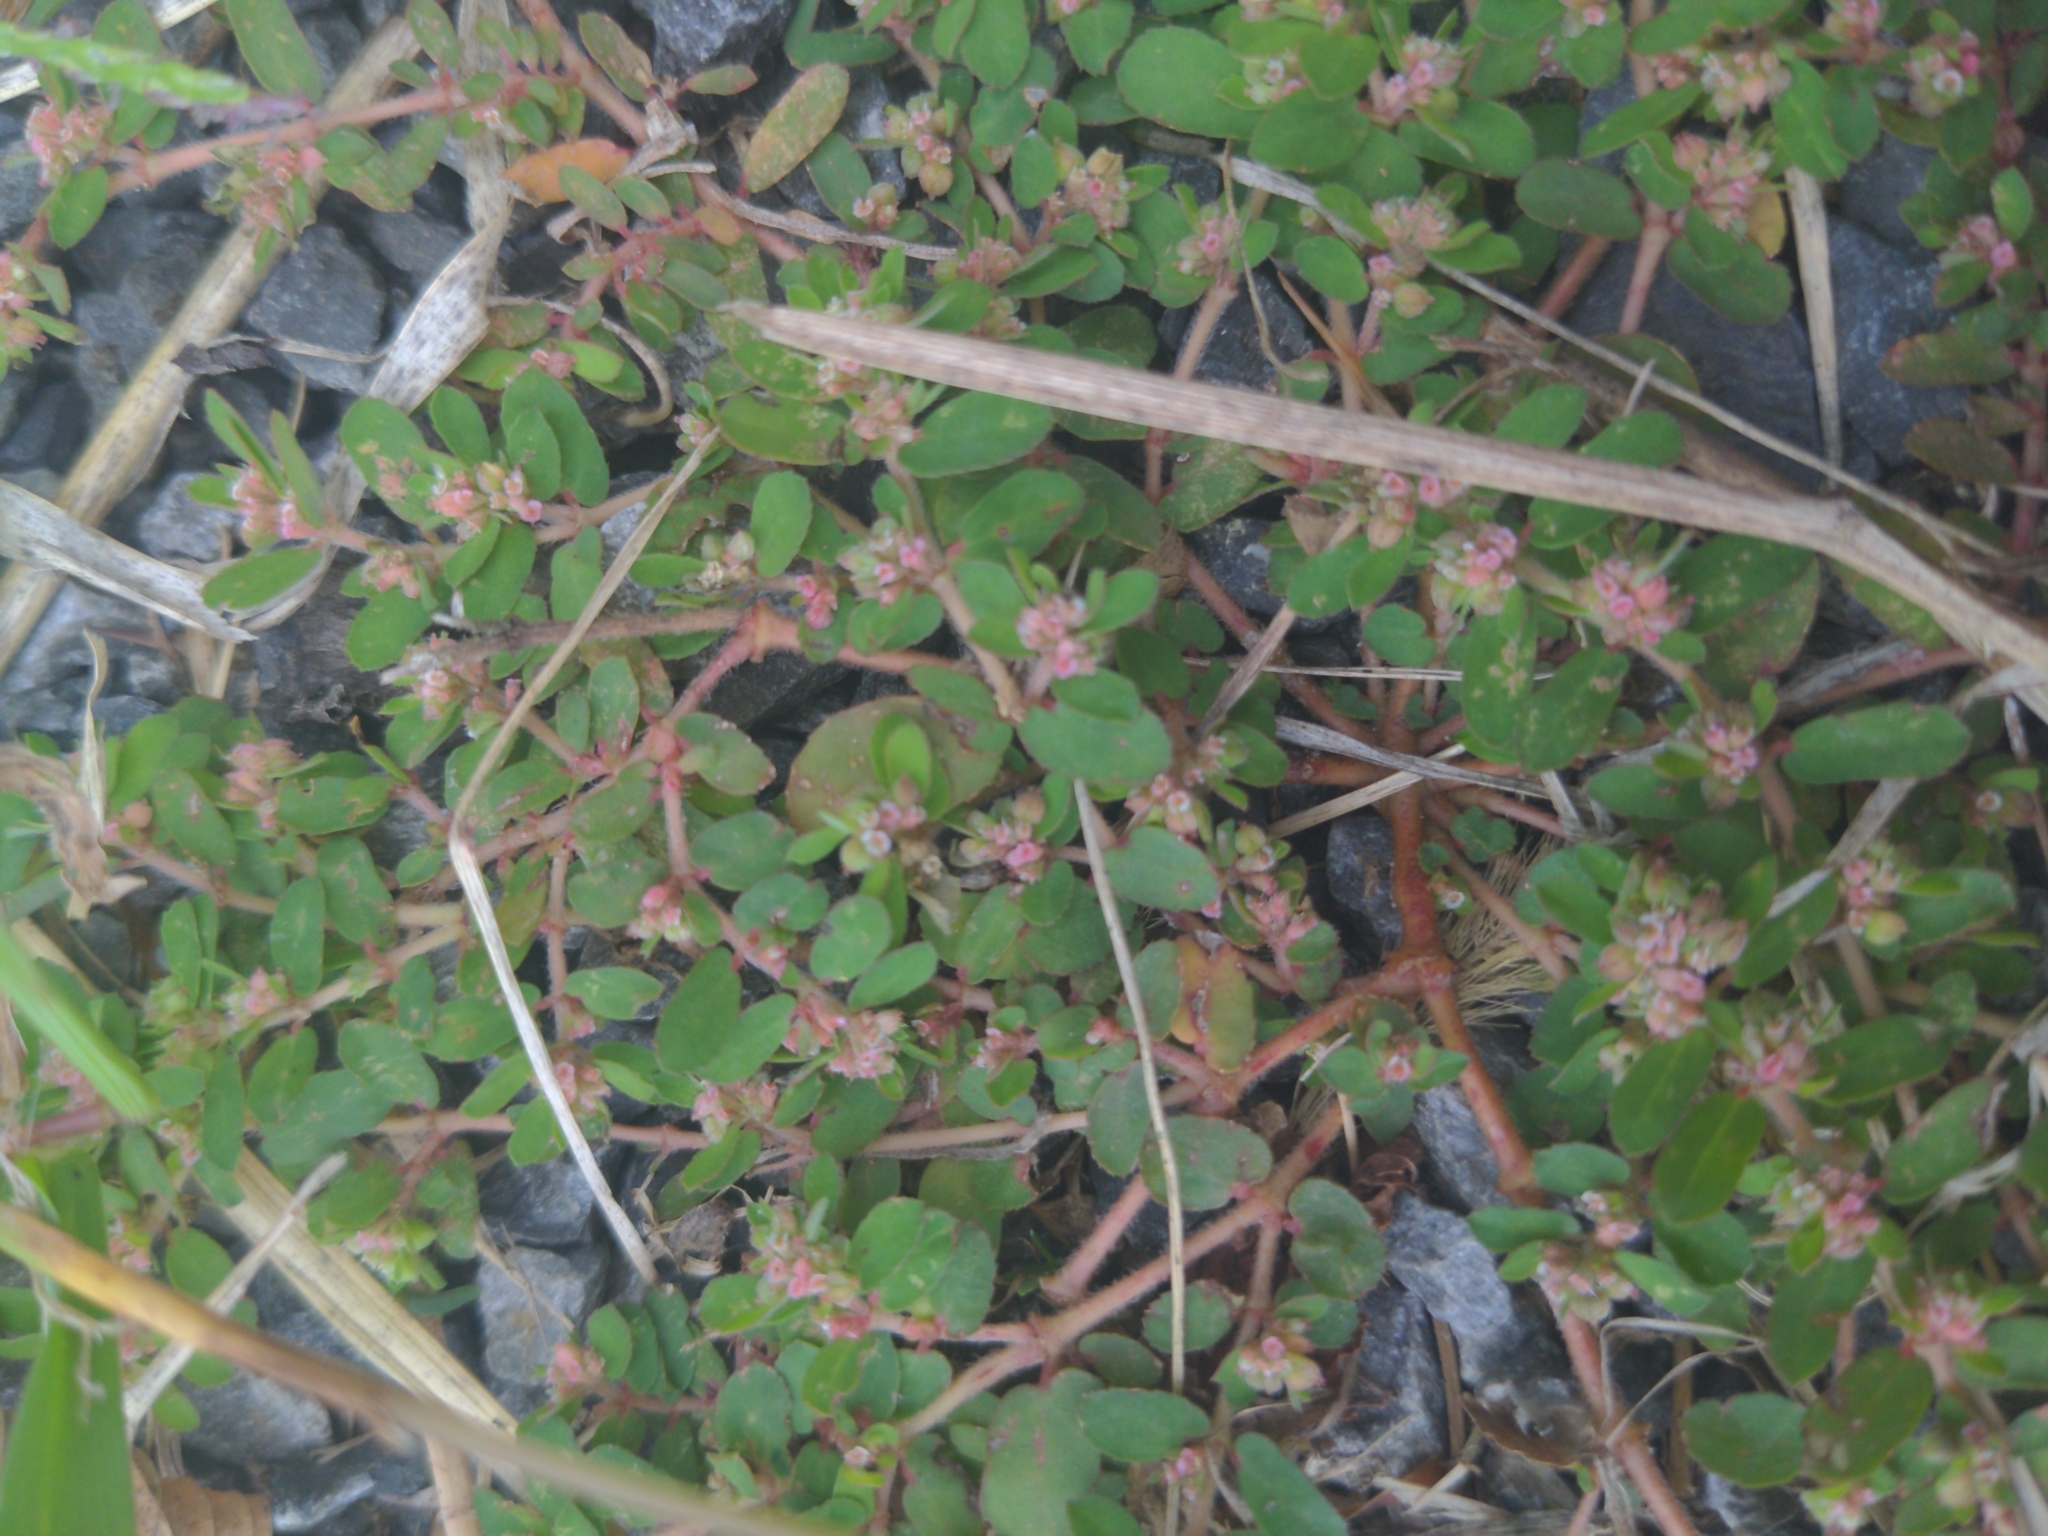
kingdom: Plantae
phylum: Tracheophyta
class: Magnoliopsida
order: Malpighiales
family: Euphorbiaceae
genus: Euphorbia
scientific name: Euphorbia maculata
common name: Spotted spurge
